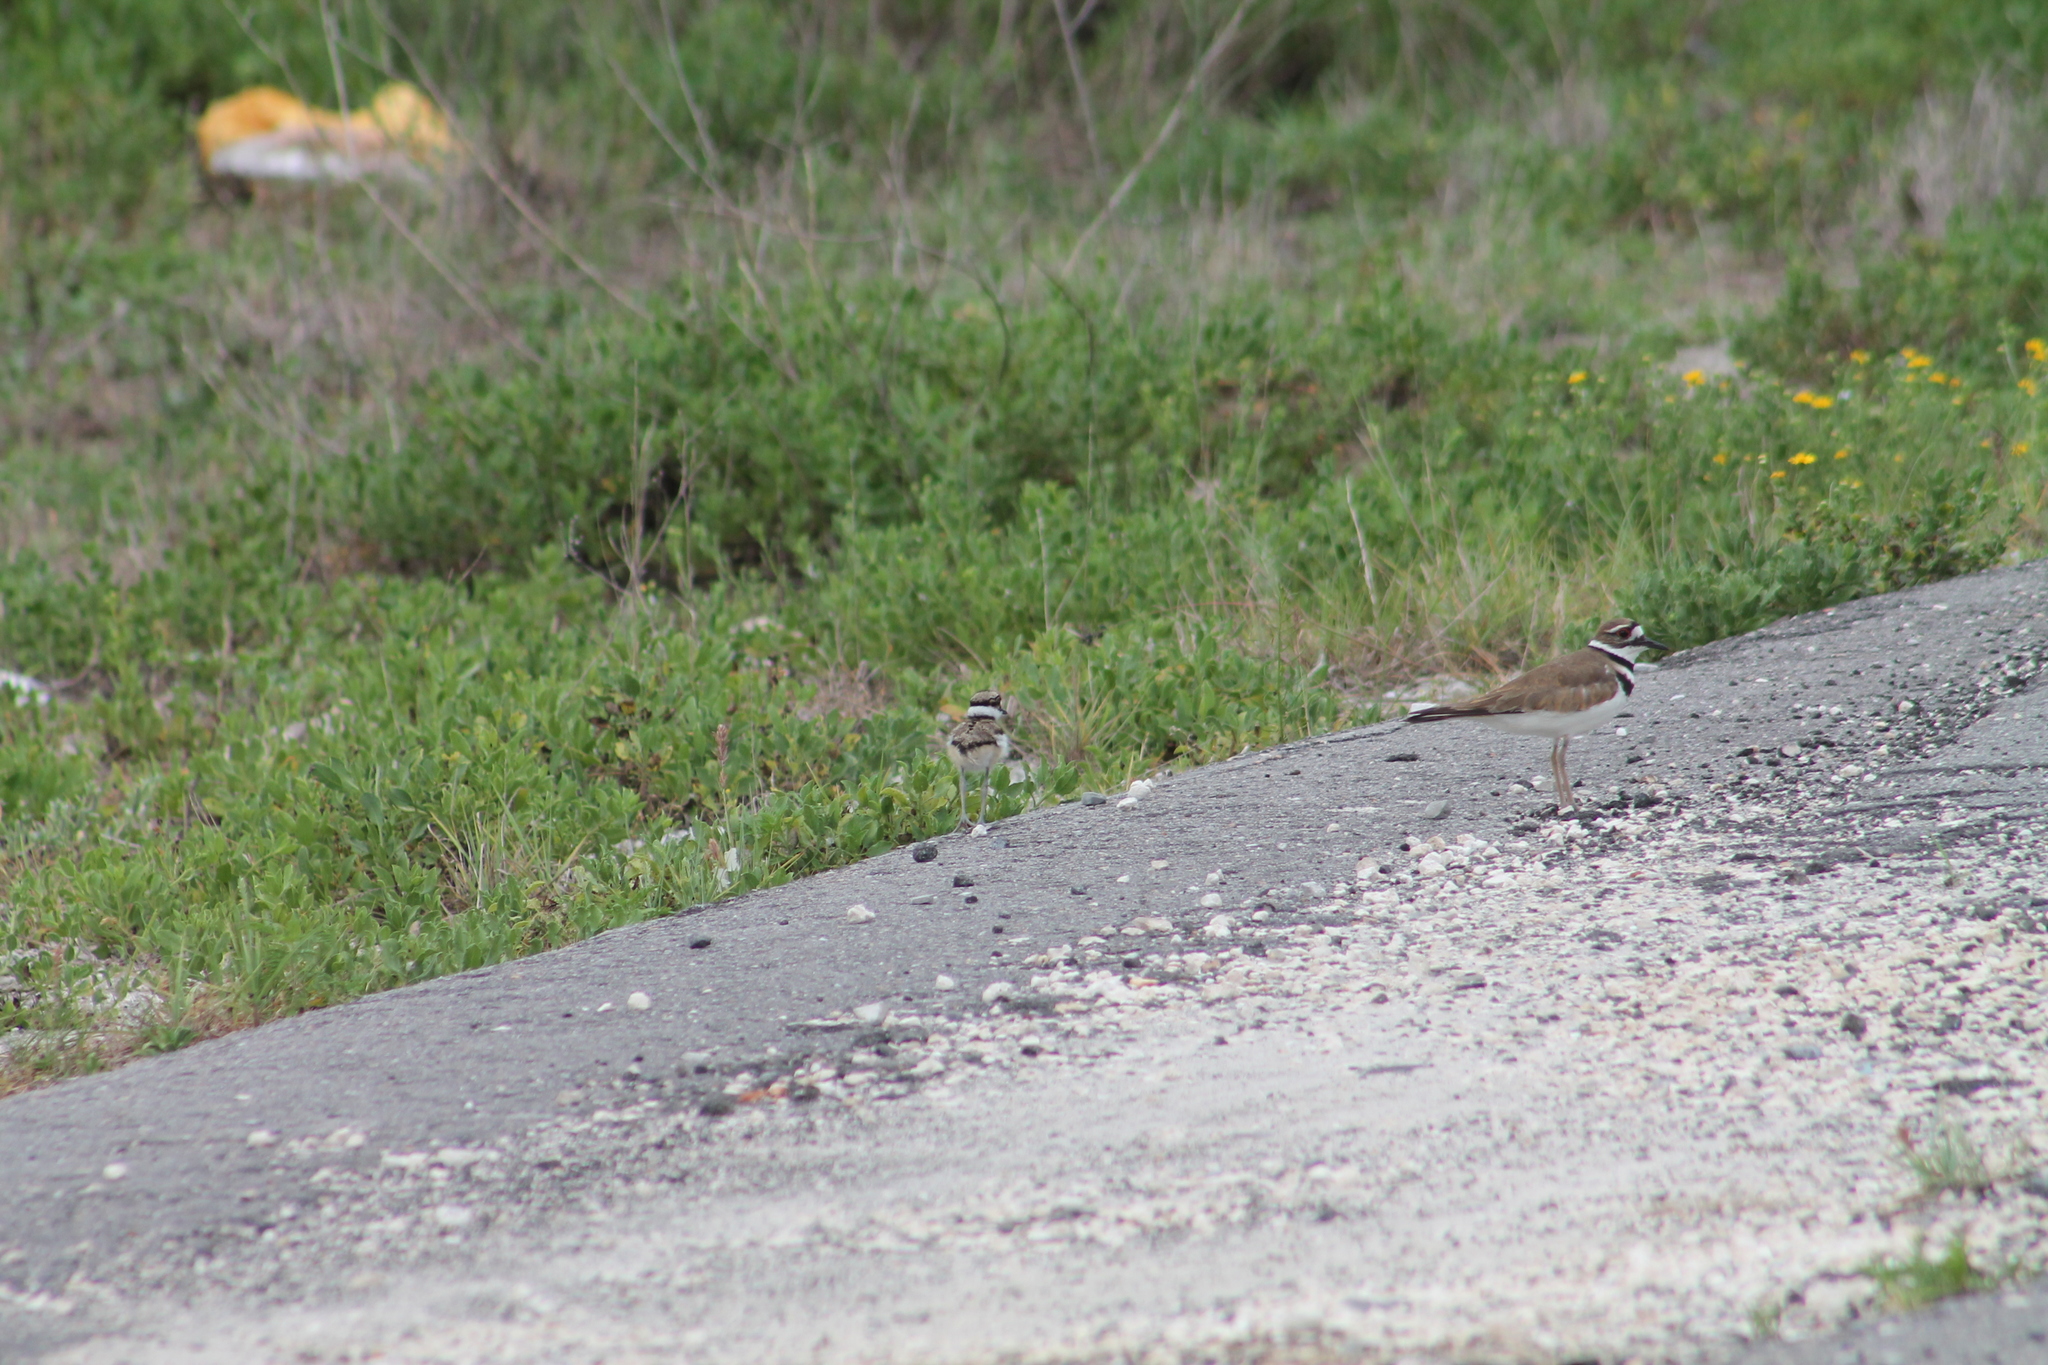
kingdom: Animalia
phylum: Chordata
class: Aves
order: Charadriiformes
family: Charadriidae
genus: Charadrius
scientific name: Charadrius vociferus
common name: Killdeer
